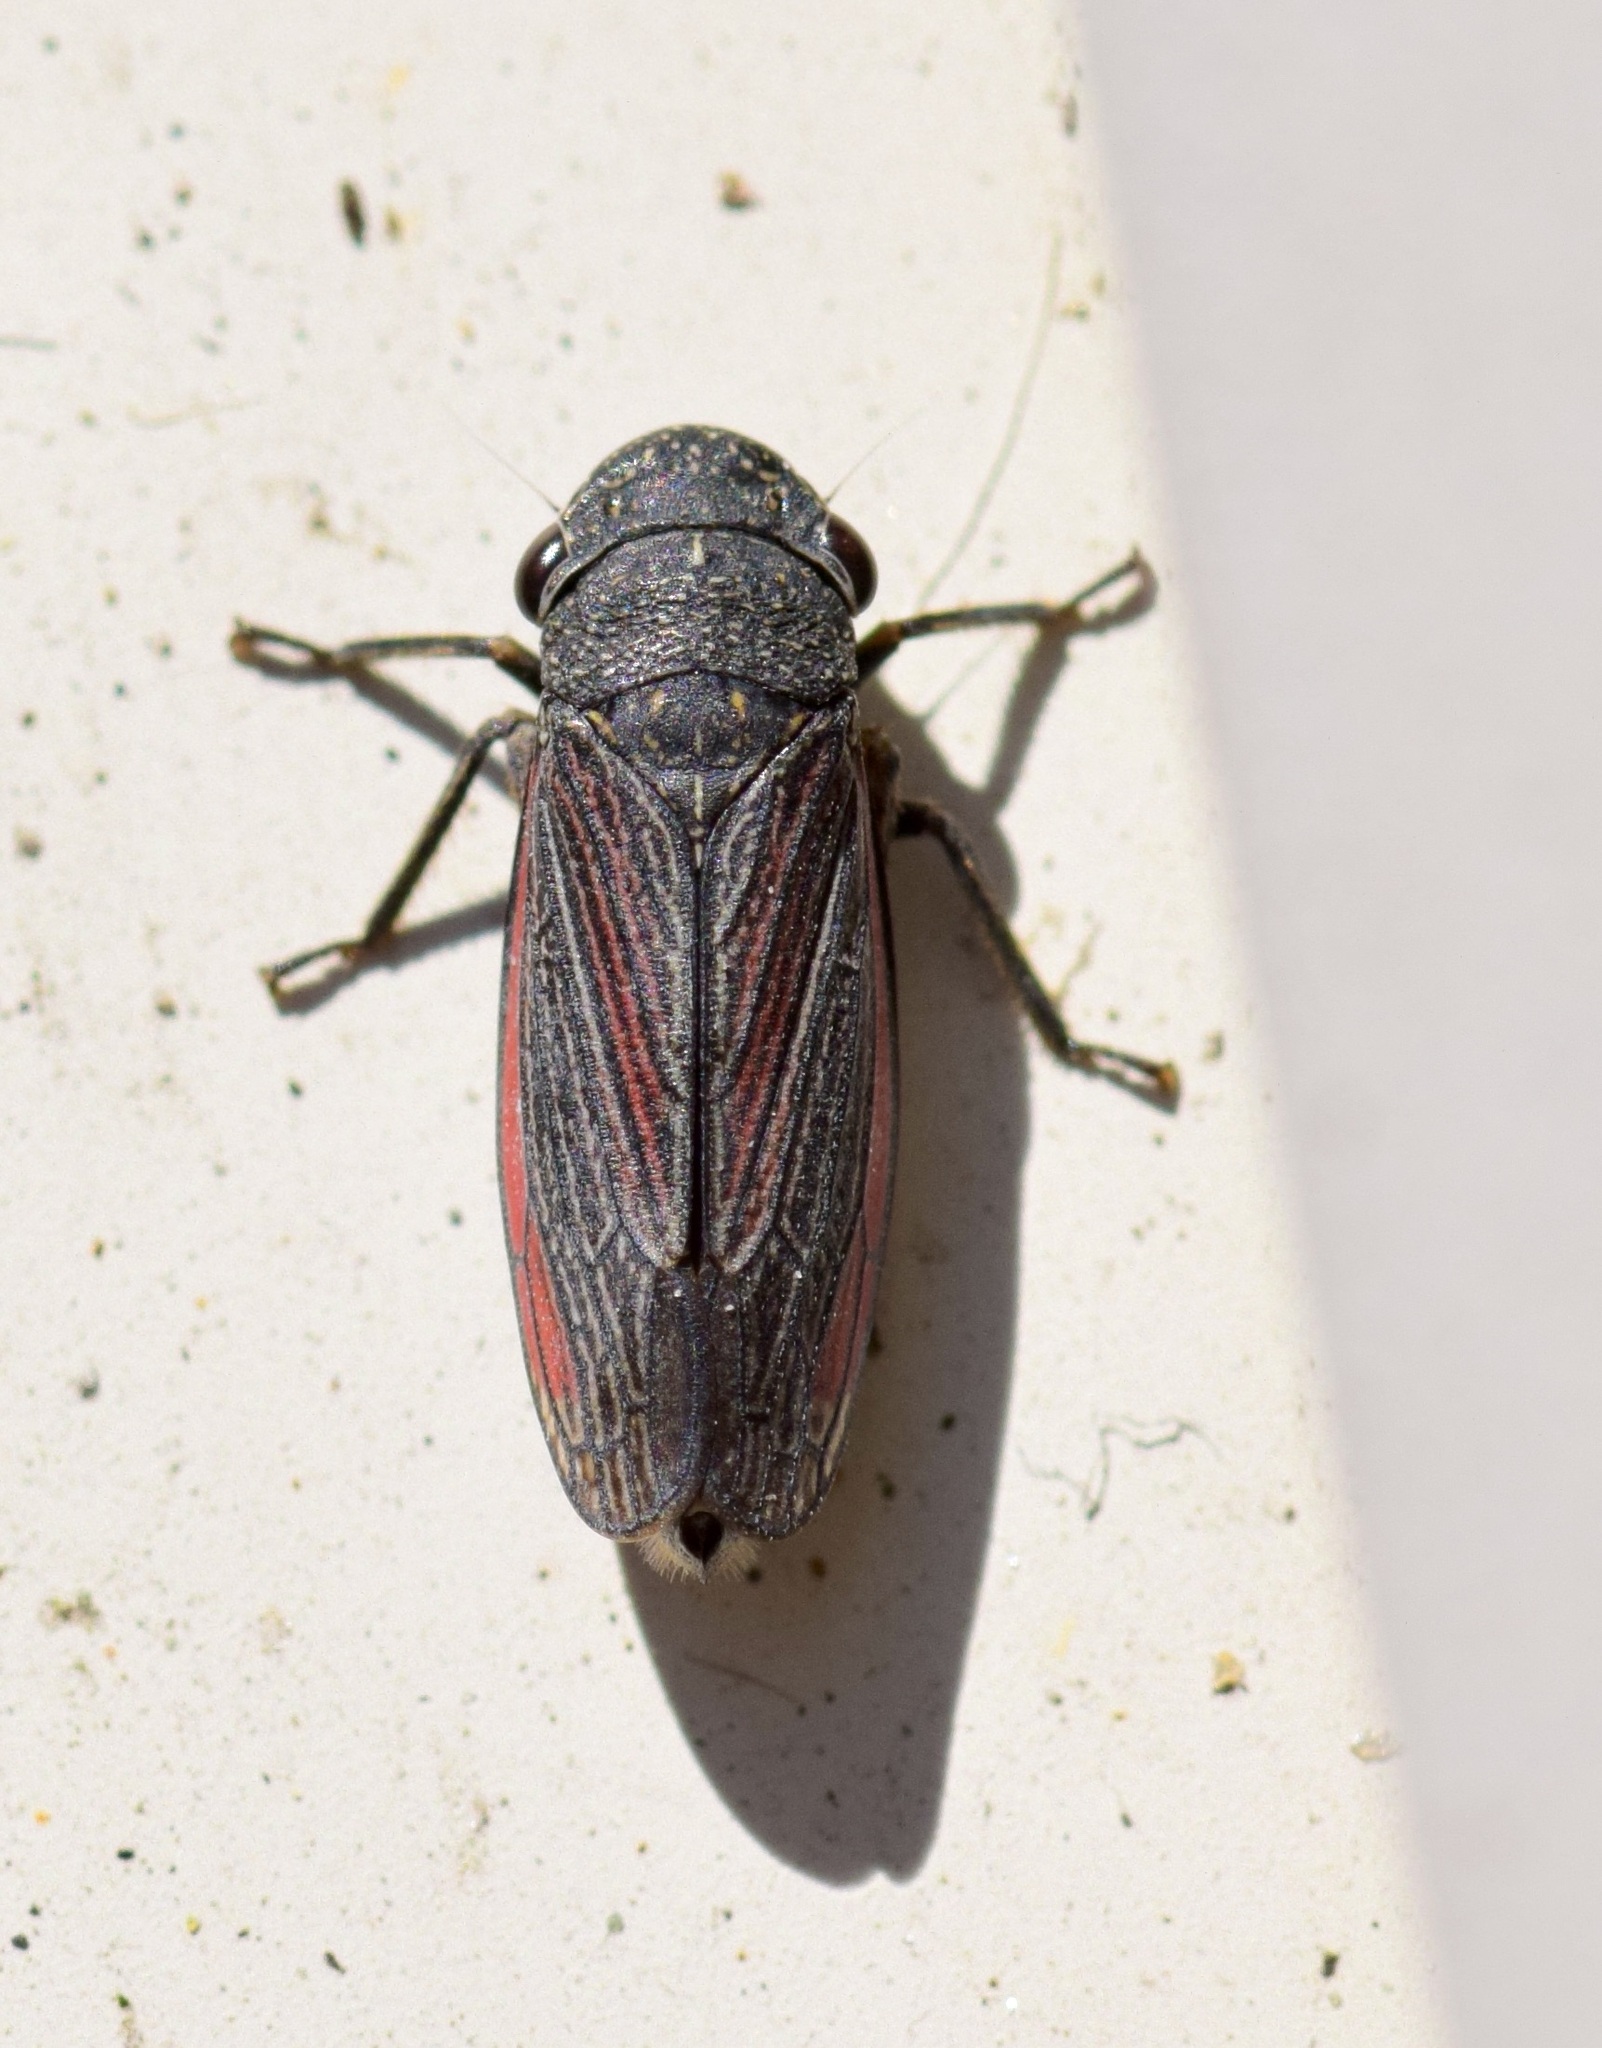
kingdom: Animalia
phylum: Arthropoda
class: Insecta
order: Hemiptera
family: Cicadellidae
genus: Cuerna
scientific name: Cuerna striata
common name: Striped leafhopper
